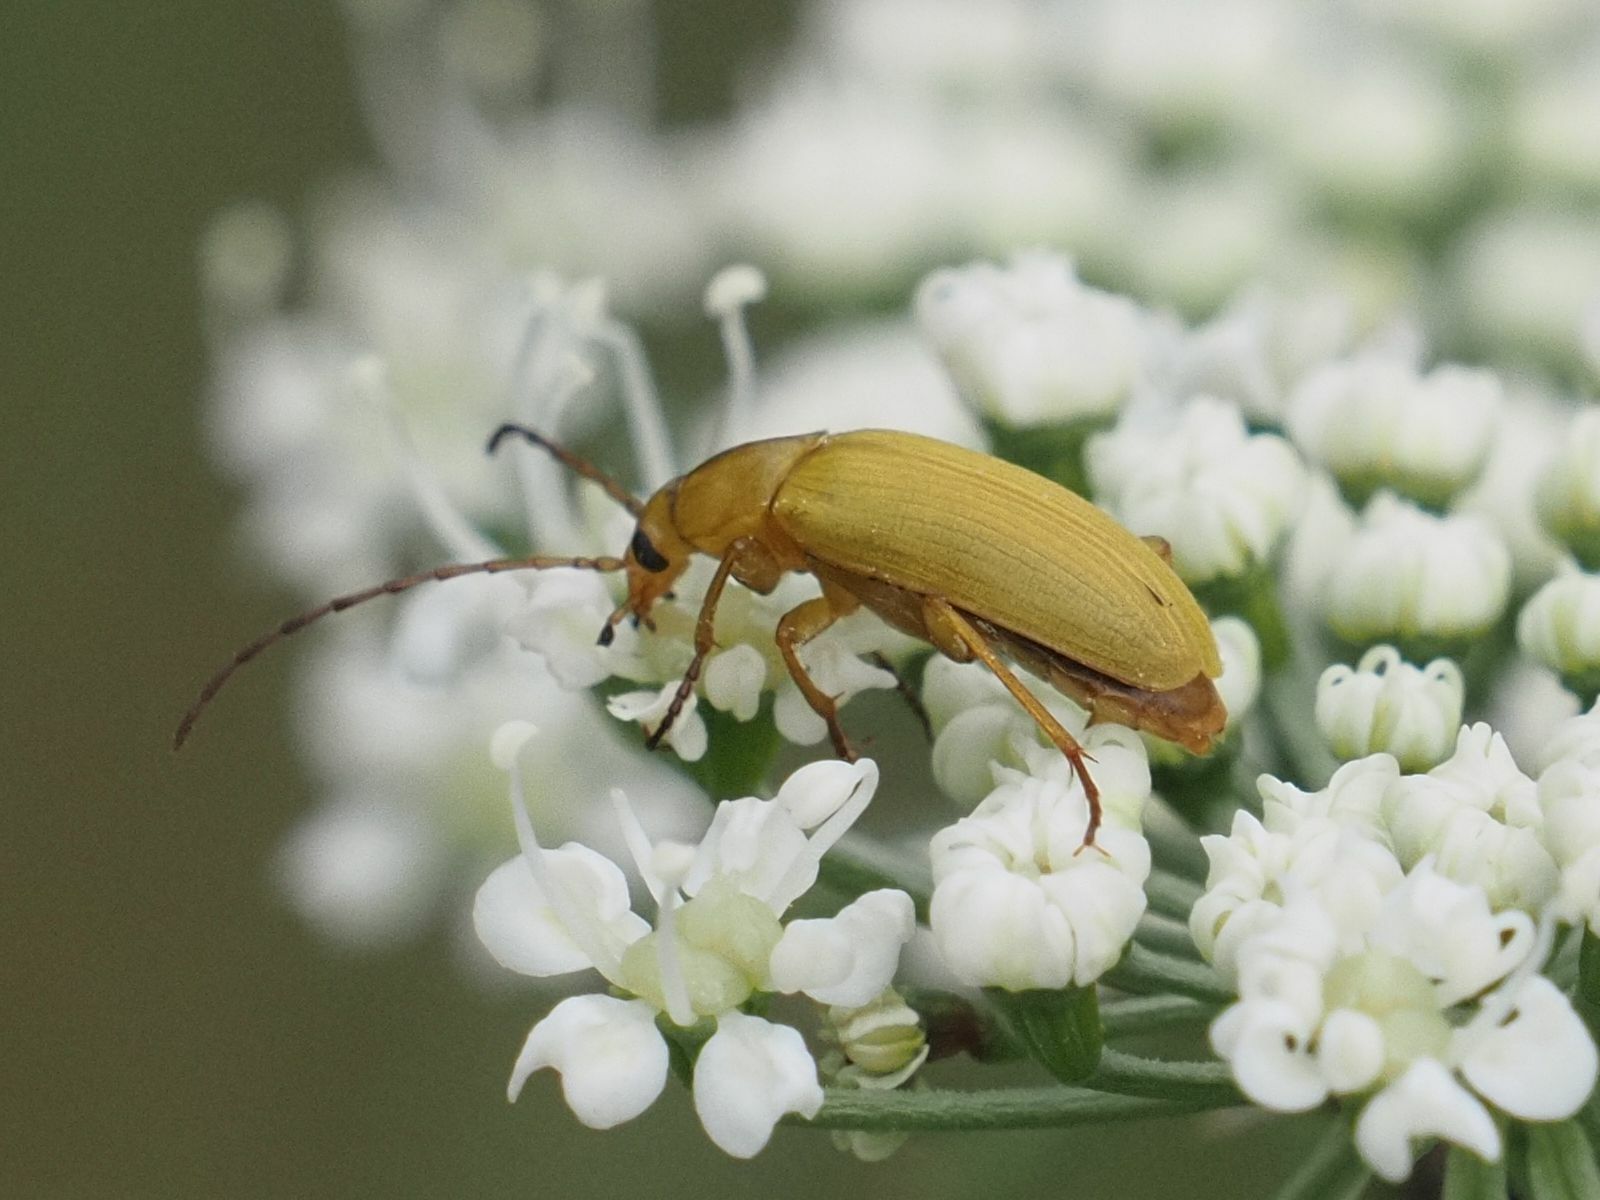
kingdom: Animalia
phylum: Arthropoda
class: Insecta
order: Coleoptera
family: Tenebrionidae
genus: Cteniopus
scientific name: Cteniopus sulphureus
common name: Sulphur beetle
